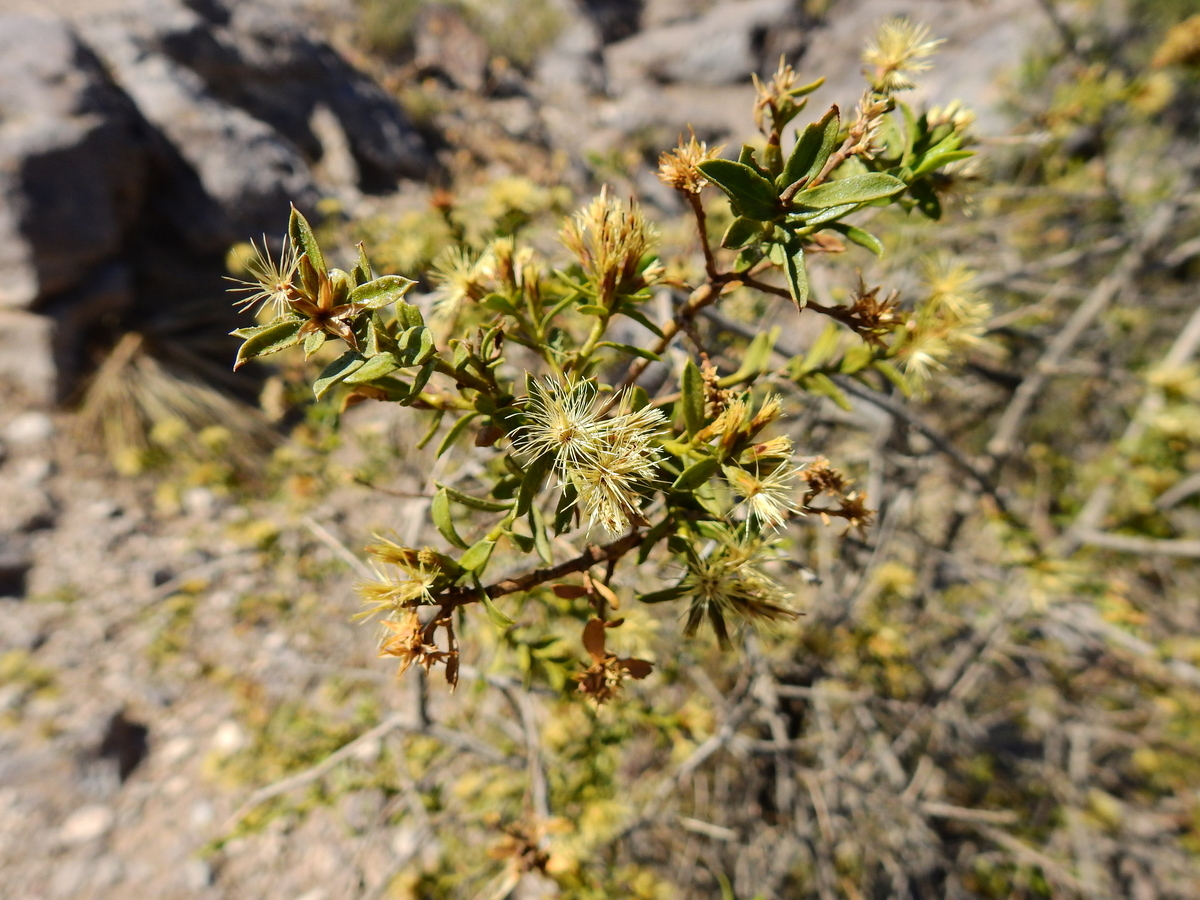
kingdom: Plantae
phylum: Tracheophyta
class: Magnoliopsida
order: Asterales
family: Asteraceae
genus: Gochnatia
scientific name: Gochnatia glutinosa
